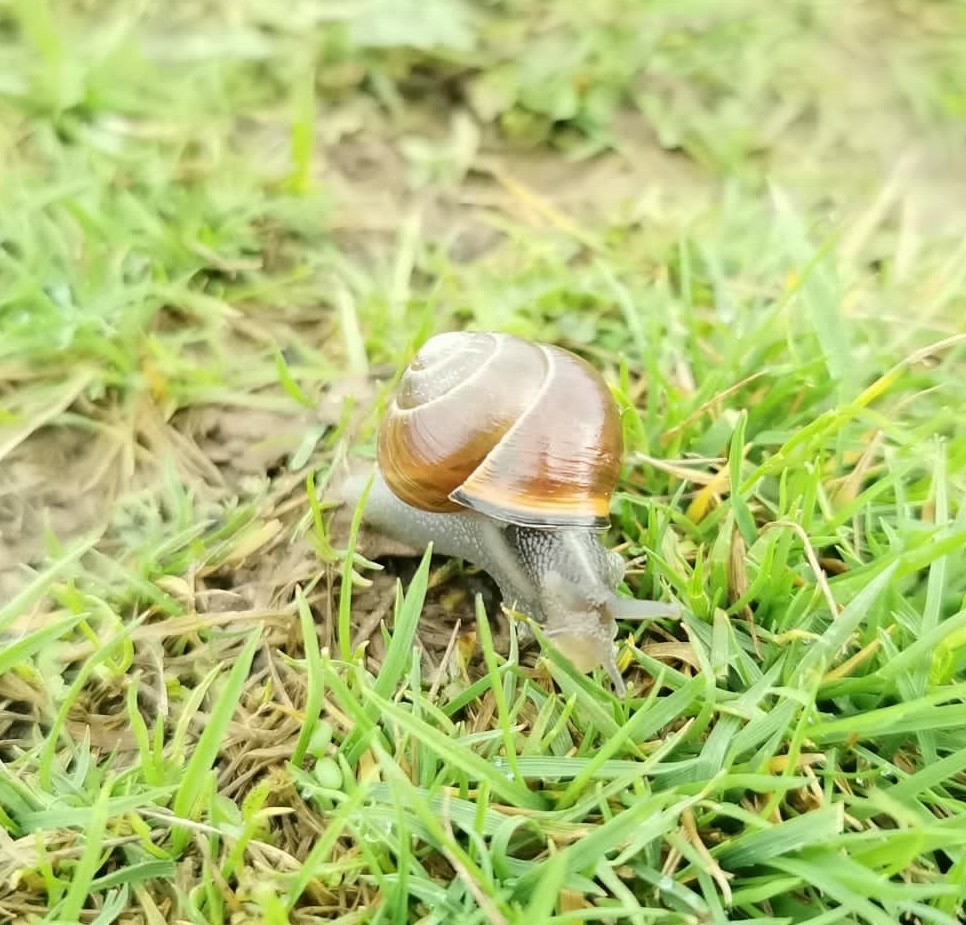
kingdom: Animalia
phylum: Mollusca
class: Gastropoda
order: Stylommatophora
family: Helicidae
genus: Cepaea
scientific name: Cepaea nemoralis
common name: Grovesnail
